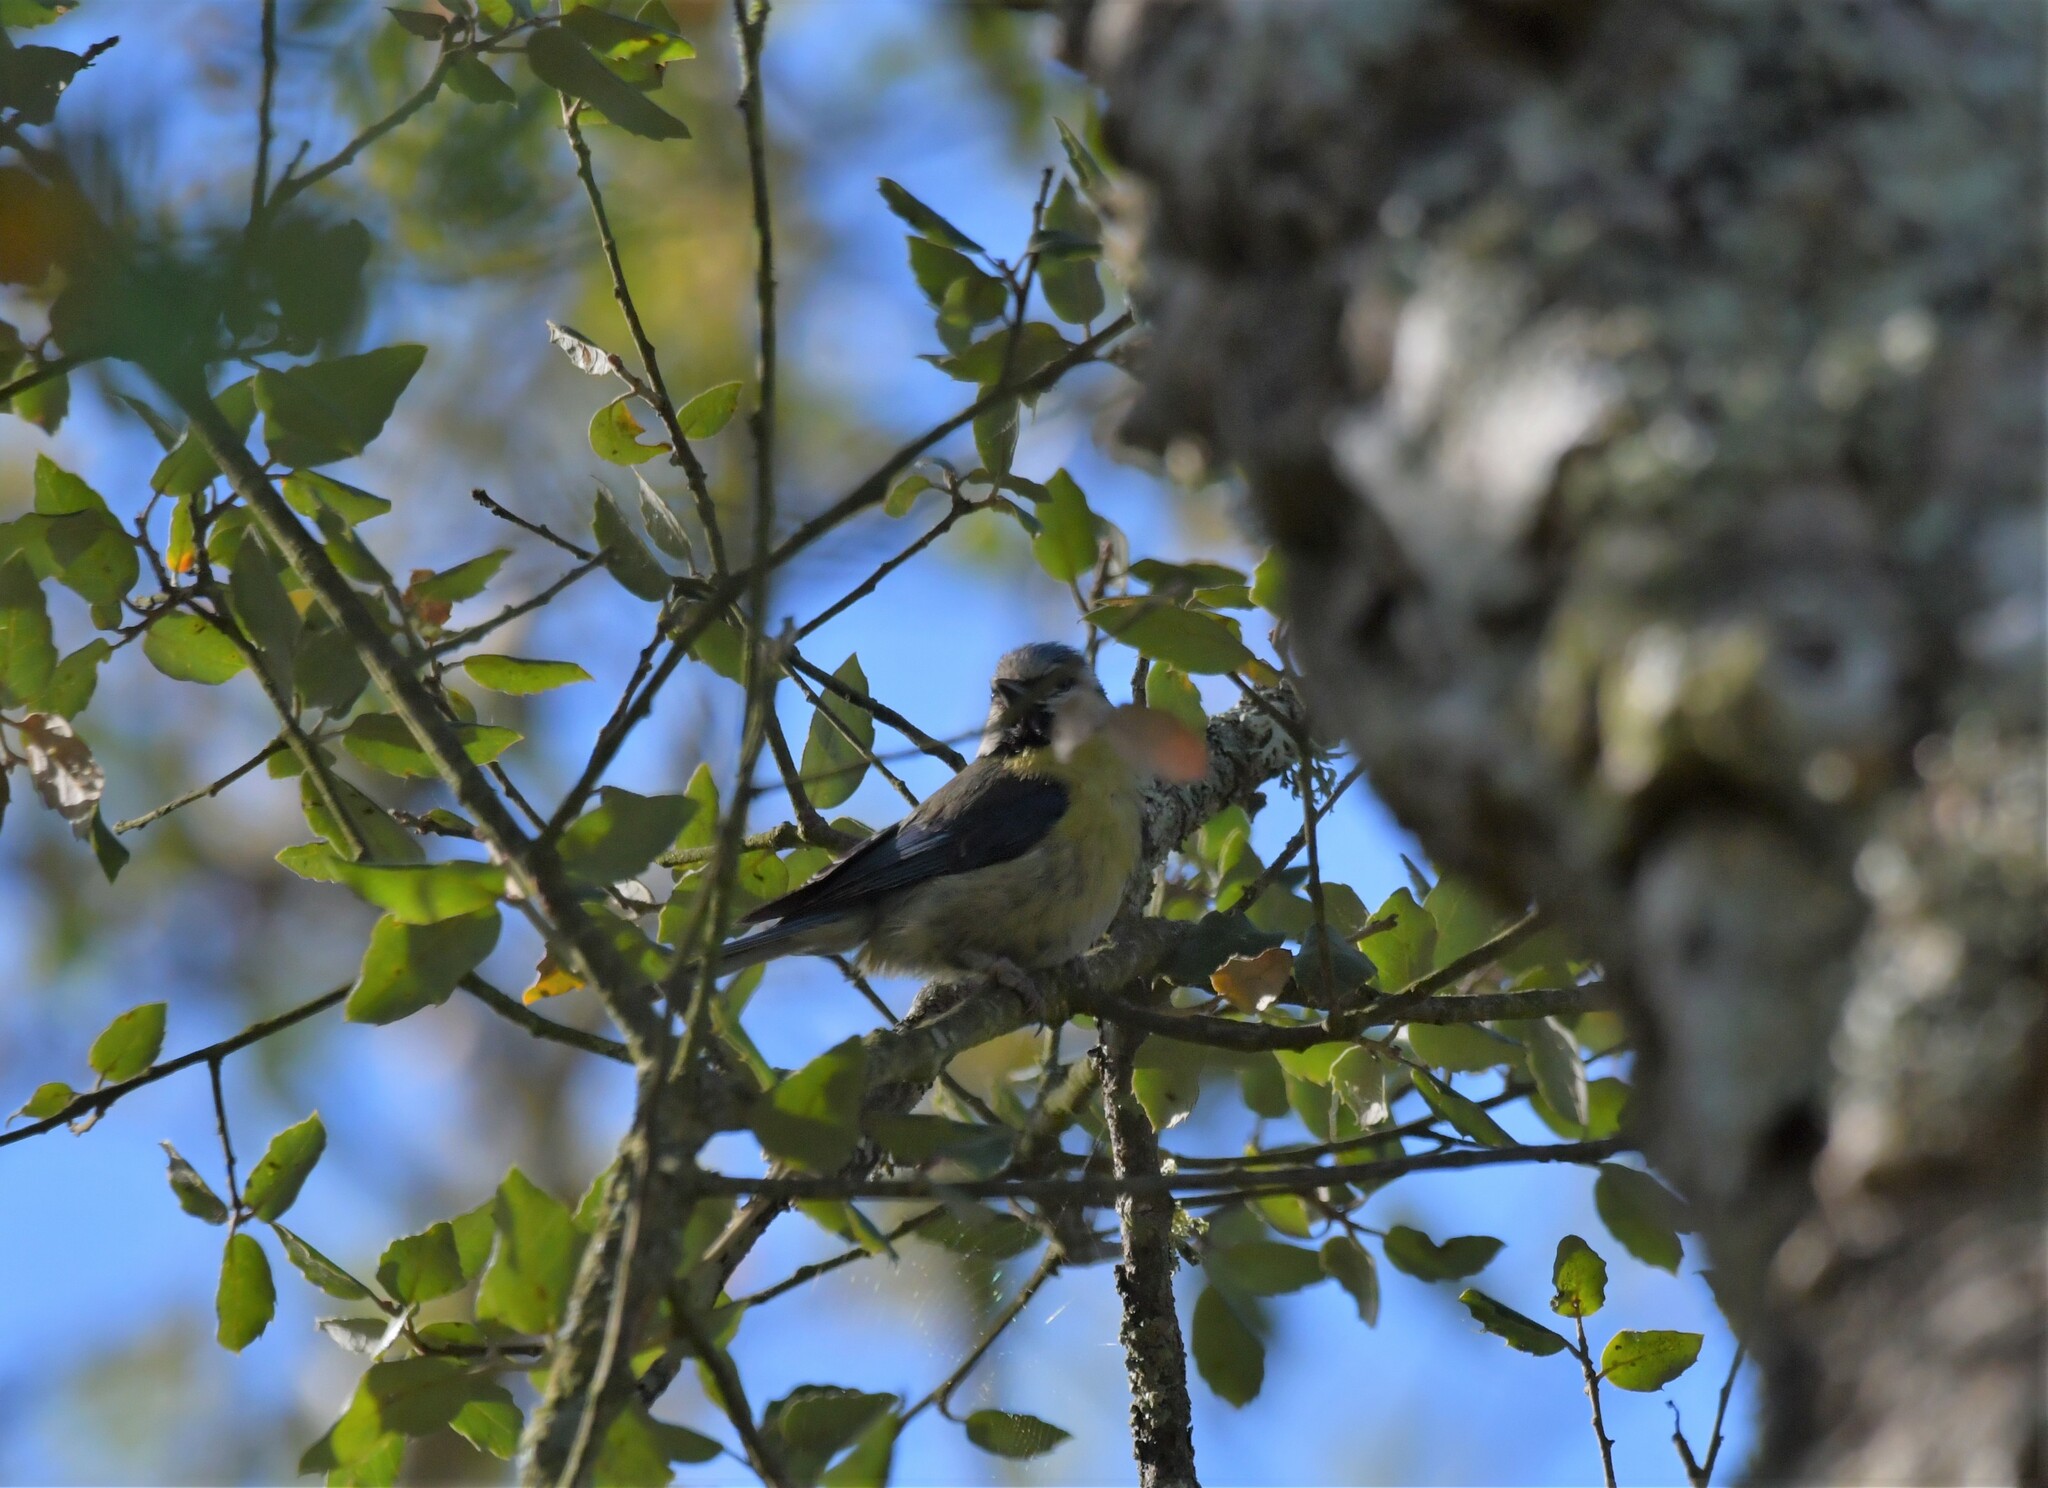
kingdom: Animalia
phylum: Chordata
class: Aves
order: Passeriformes
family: Paridae
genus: Cyanistes
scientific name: Cyanistes caeruleus
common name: Eurasian blue tit
